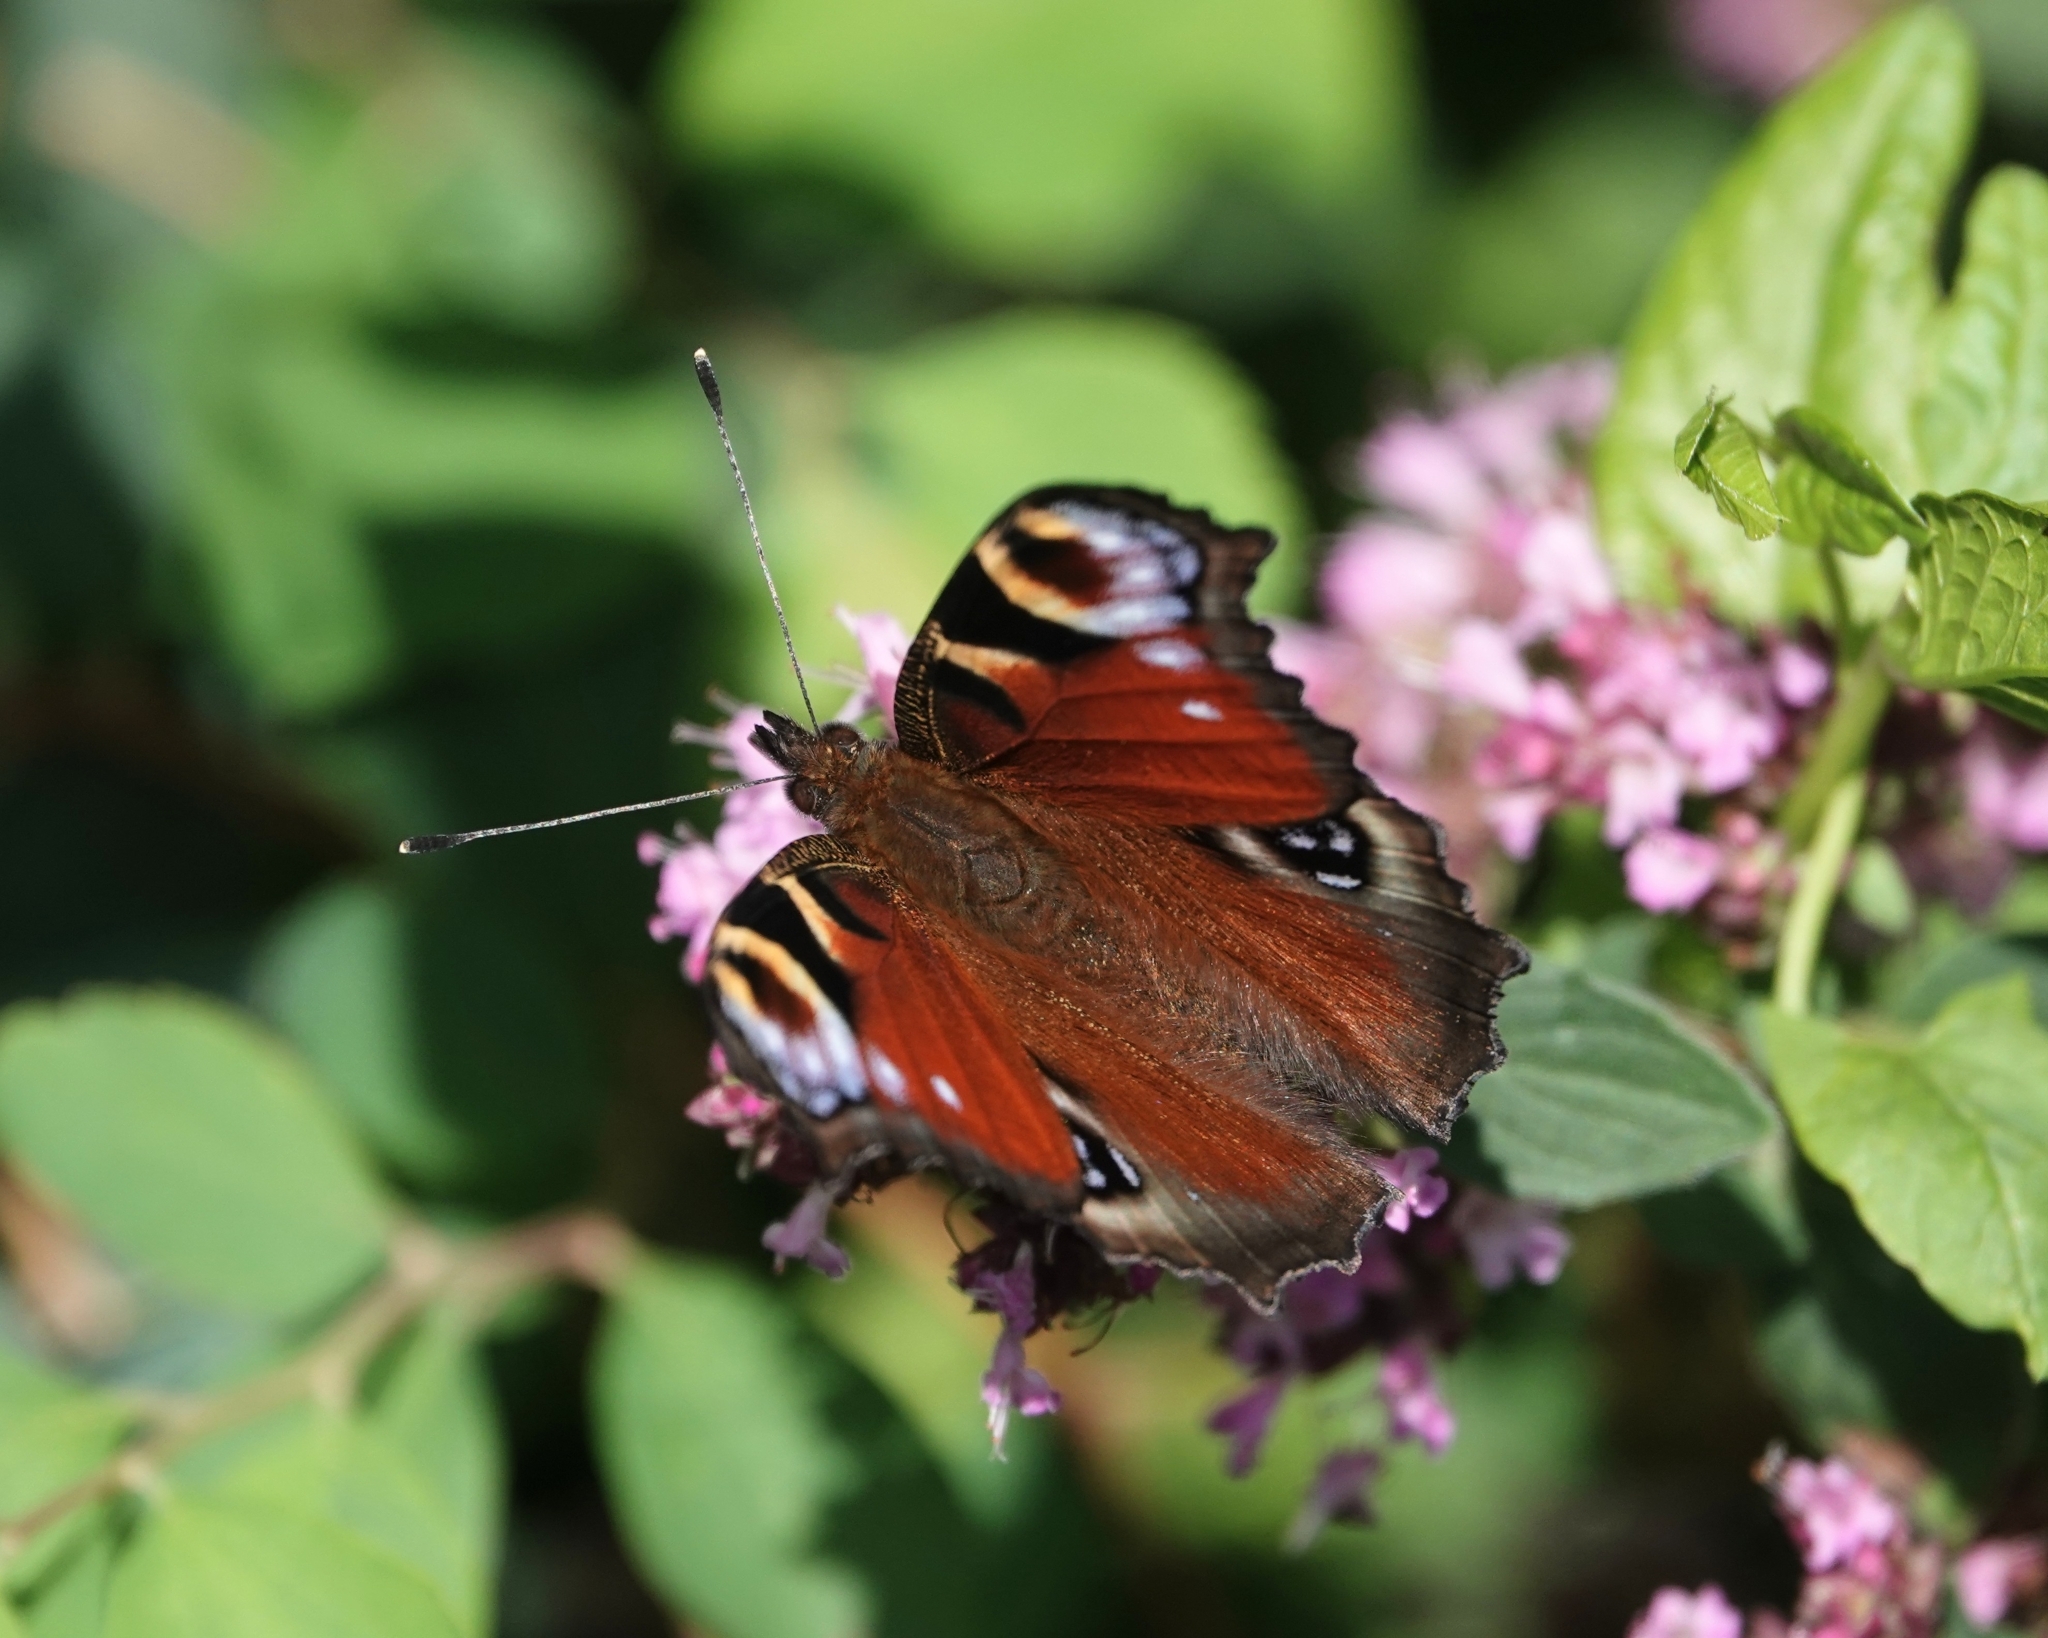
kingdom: Animalia
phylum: Arthropoda
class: Insecta
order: Lepidoptera
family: Nymphalidae
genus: Aglais
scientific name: Aglais io
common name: Peacock
